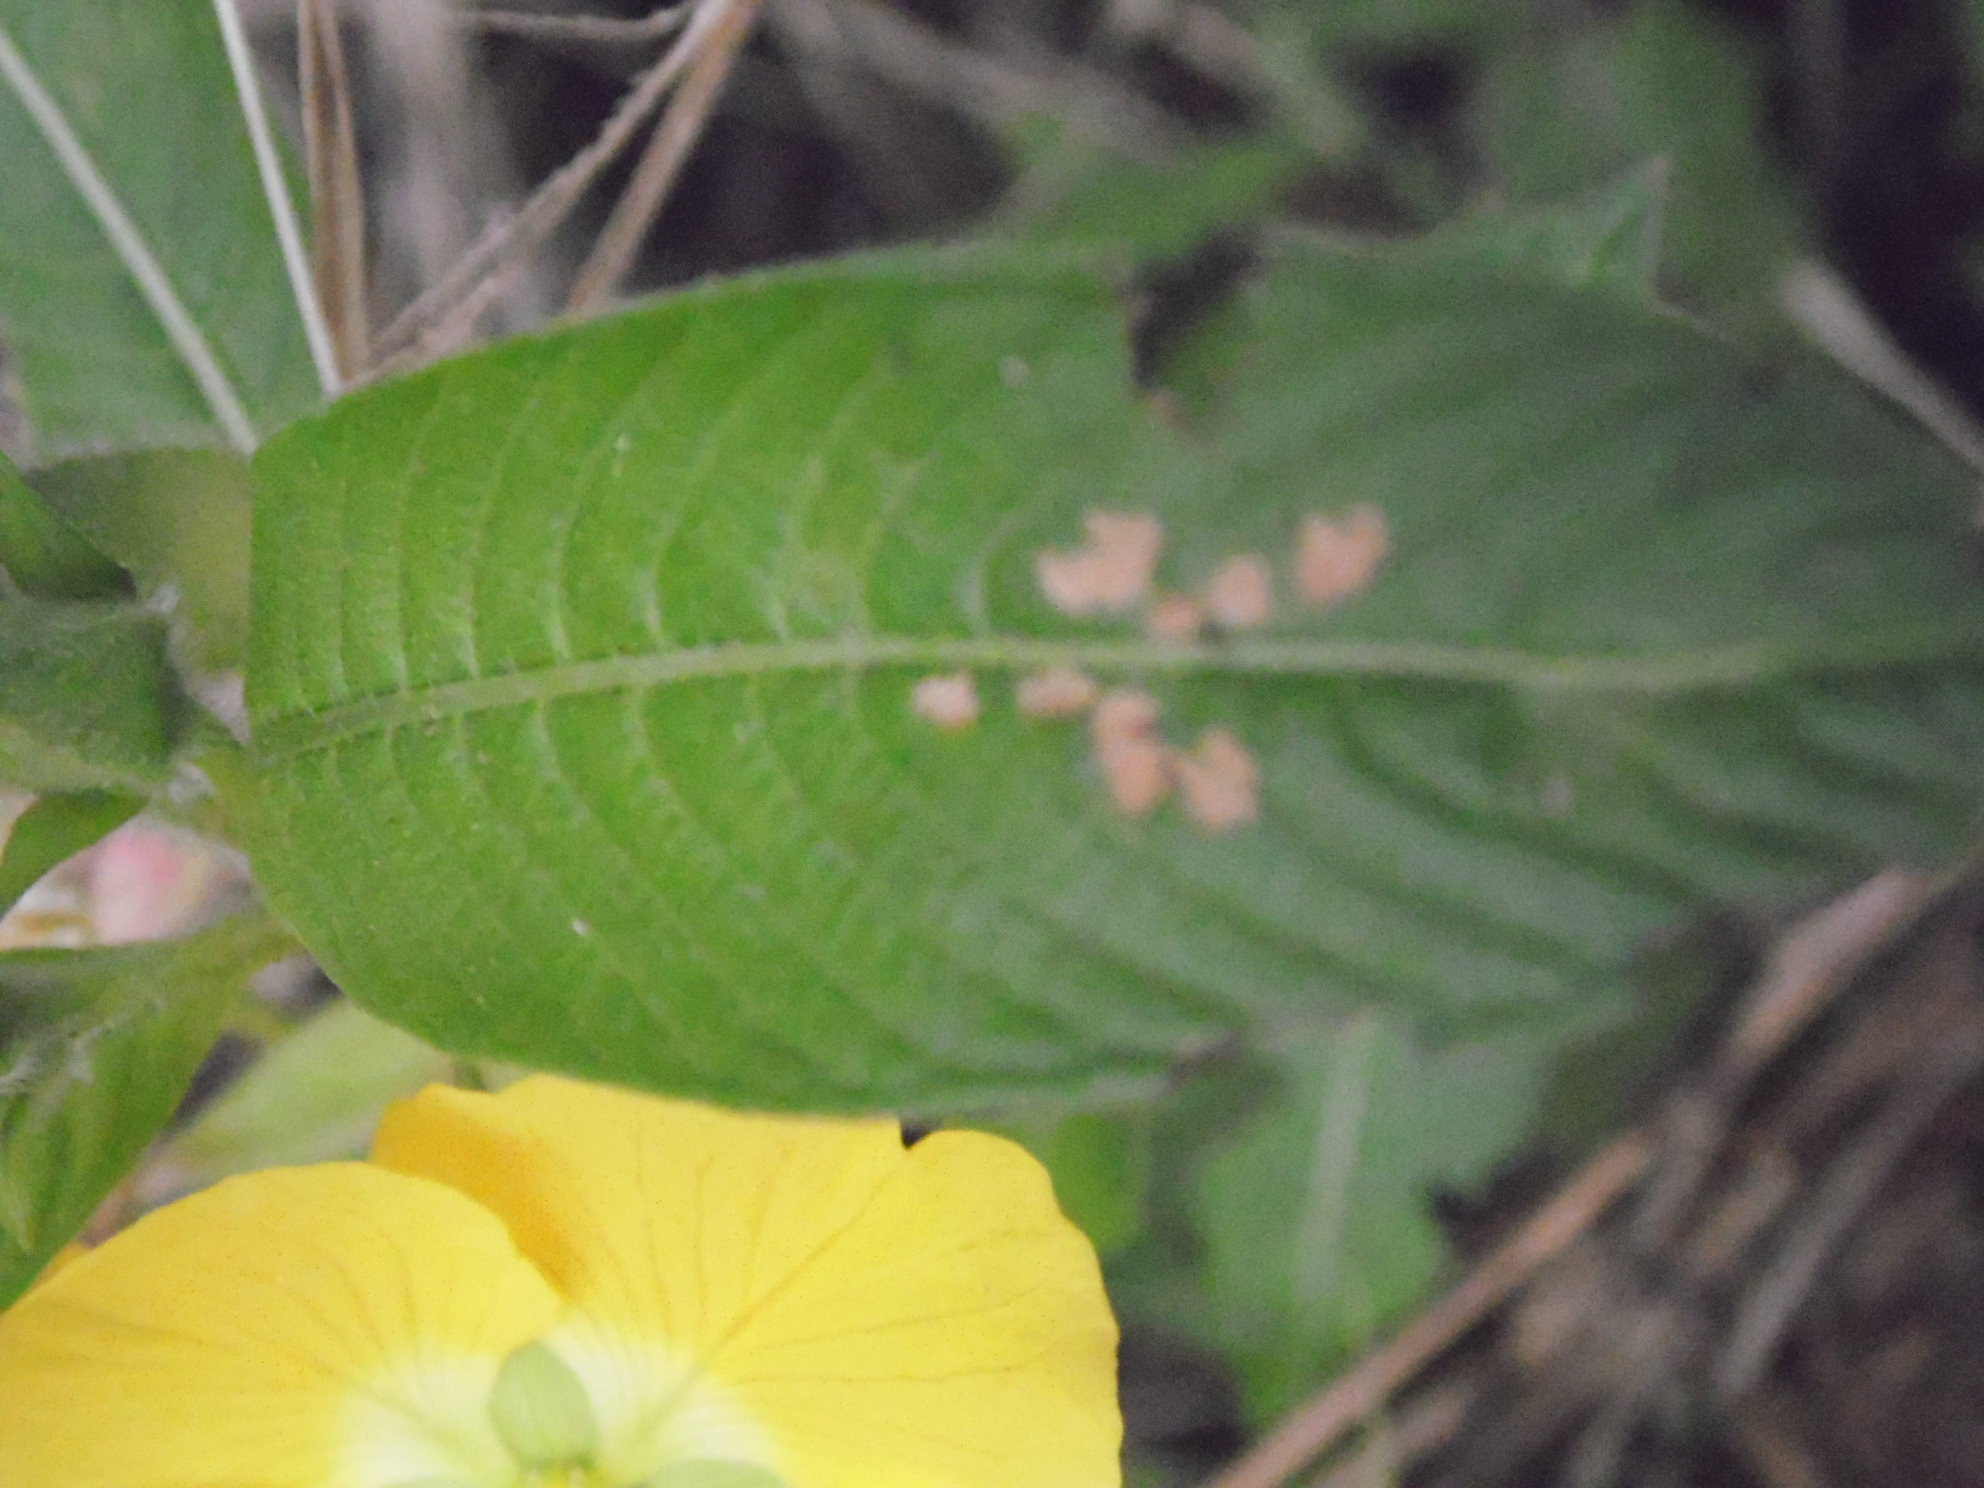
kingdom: Plantae
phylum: Tracheophyta
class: Magnoliopsida
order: Myrtales
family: Onagraceae
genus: Ludwigia
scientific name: Ludwigia peruviana
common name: Peruvian primrose-willow
